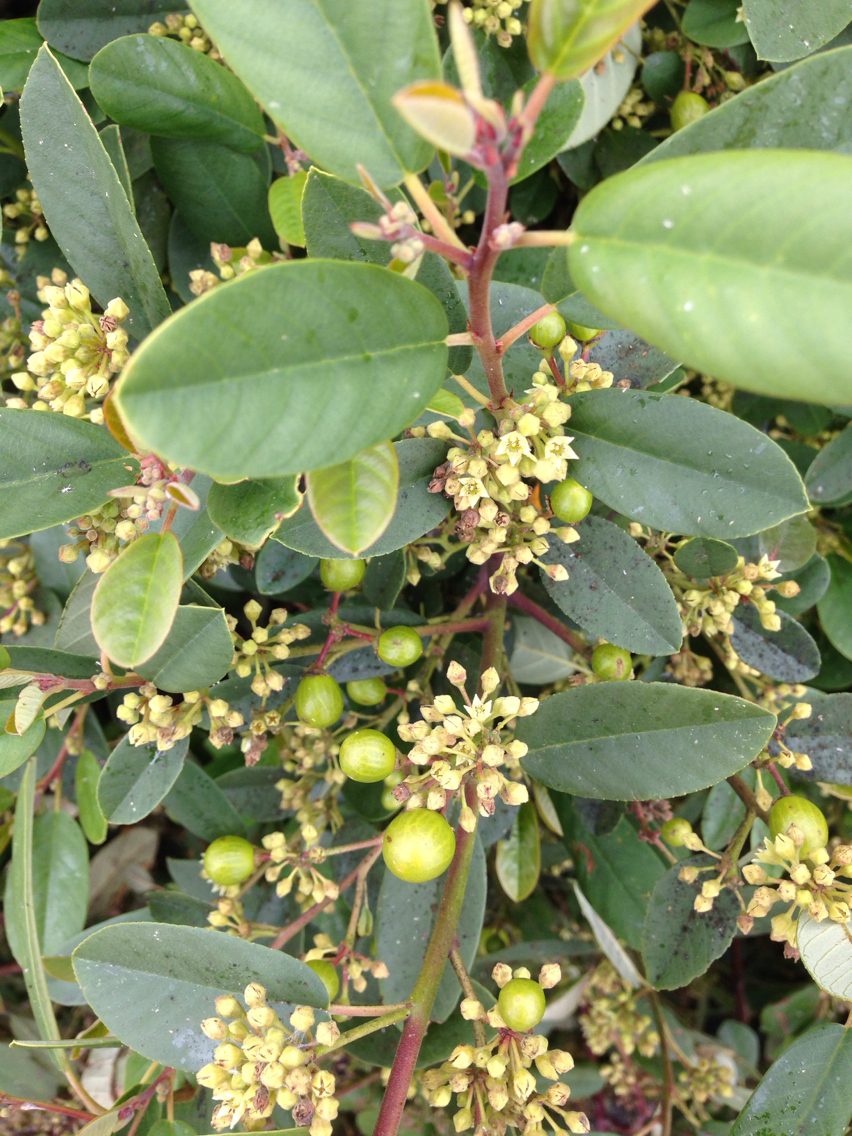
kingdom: Plantae
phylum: Tracheophyta
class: Magnoliopsida
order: Rosales
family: Rhamnaceae
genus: Frangula
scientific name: Frangula californica
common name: California buckthorn
